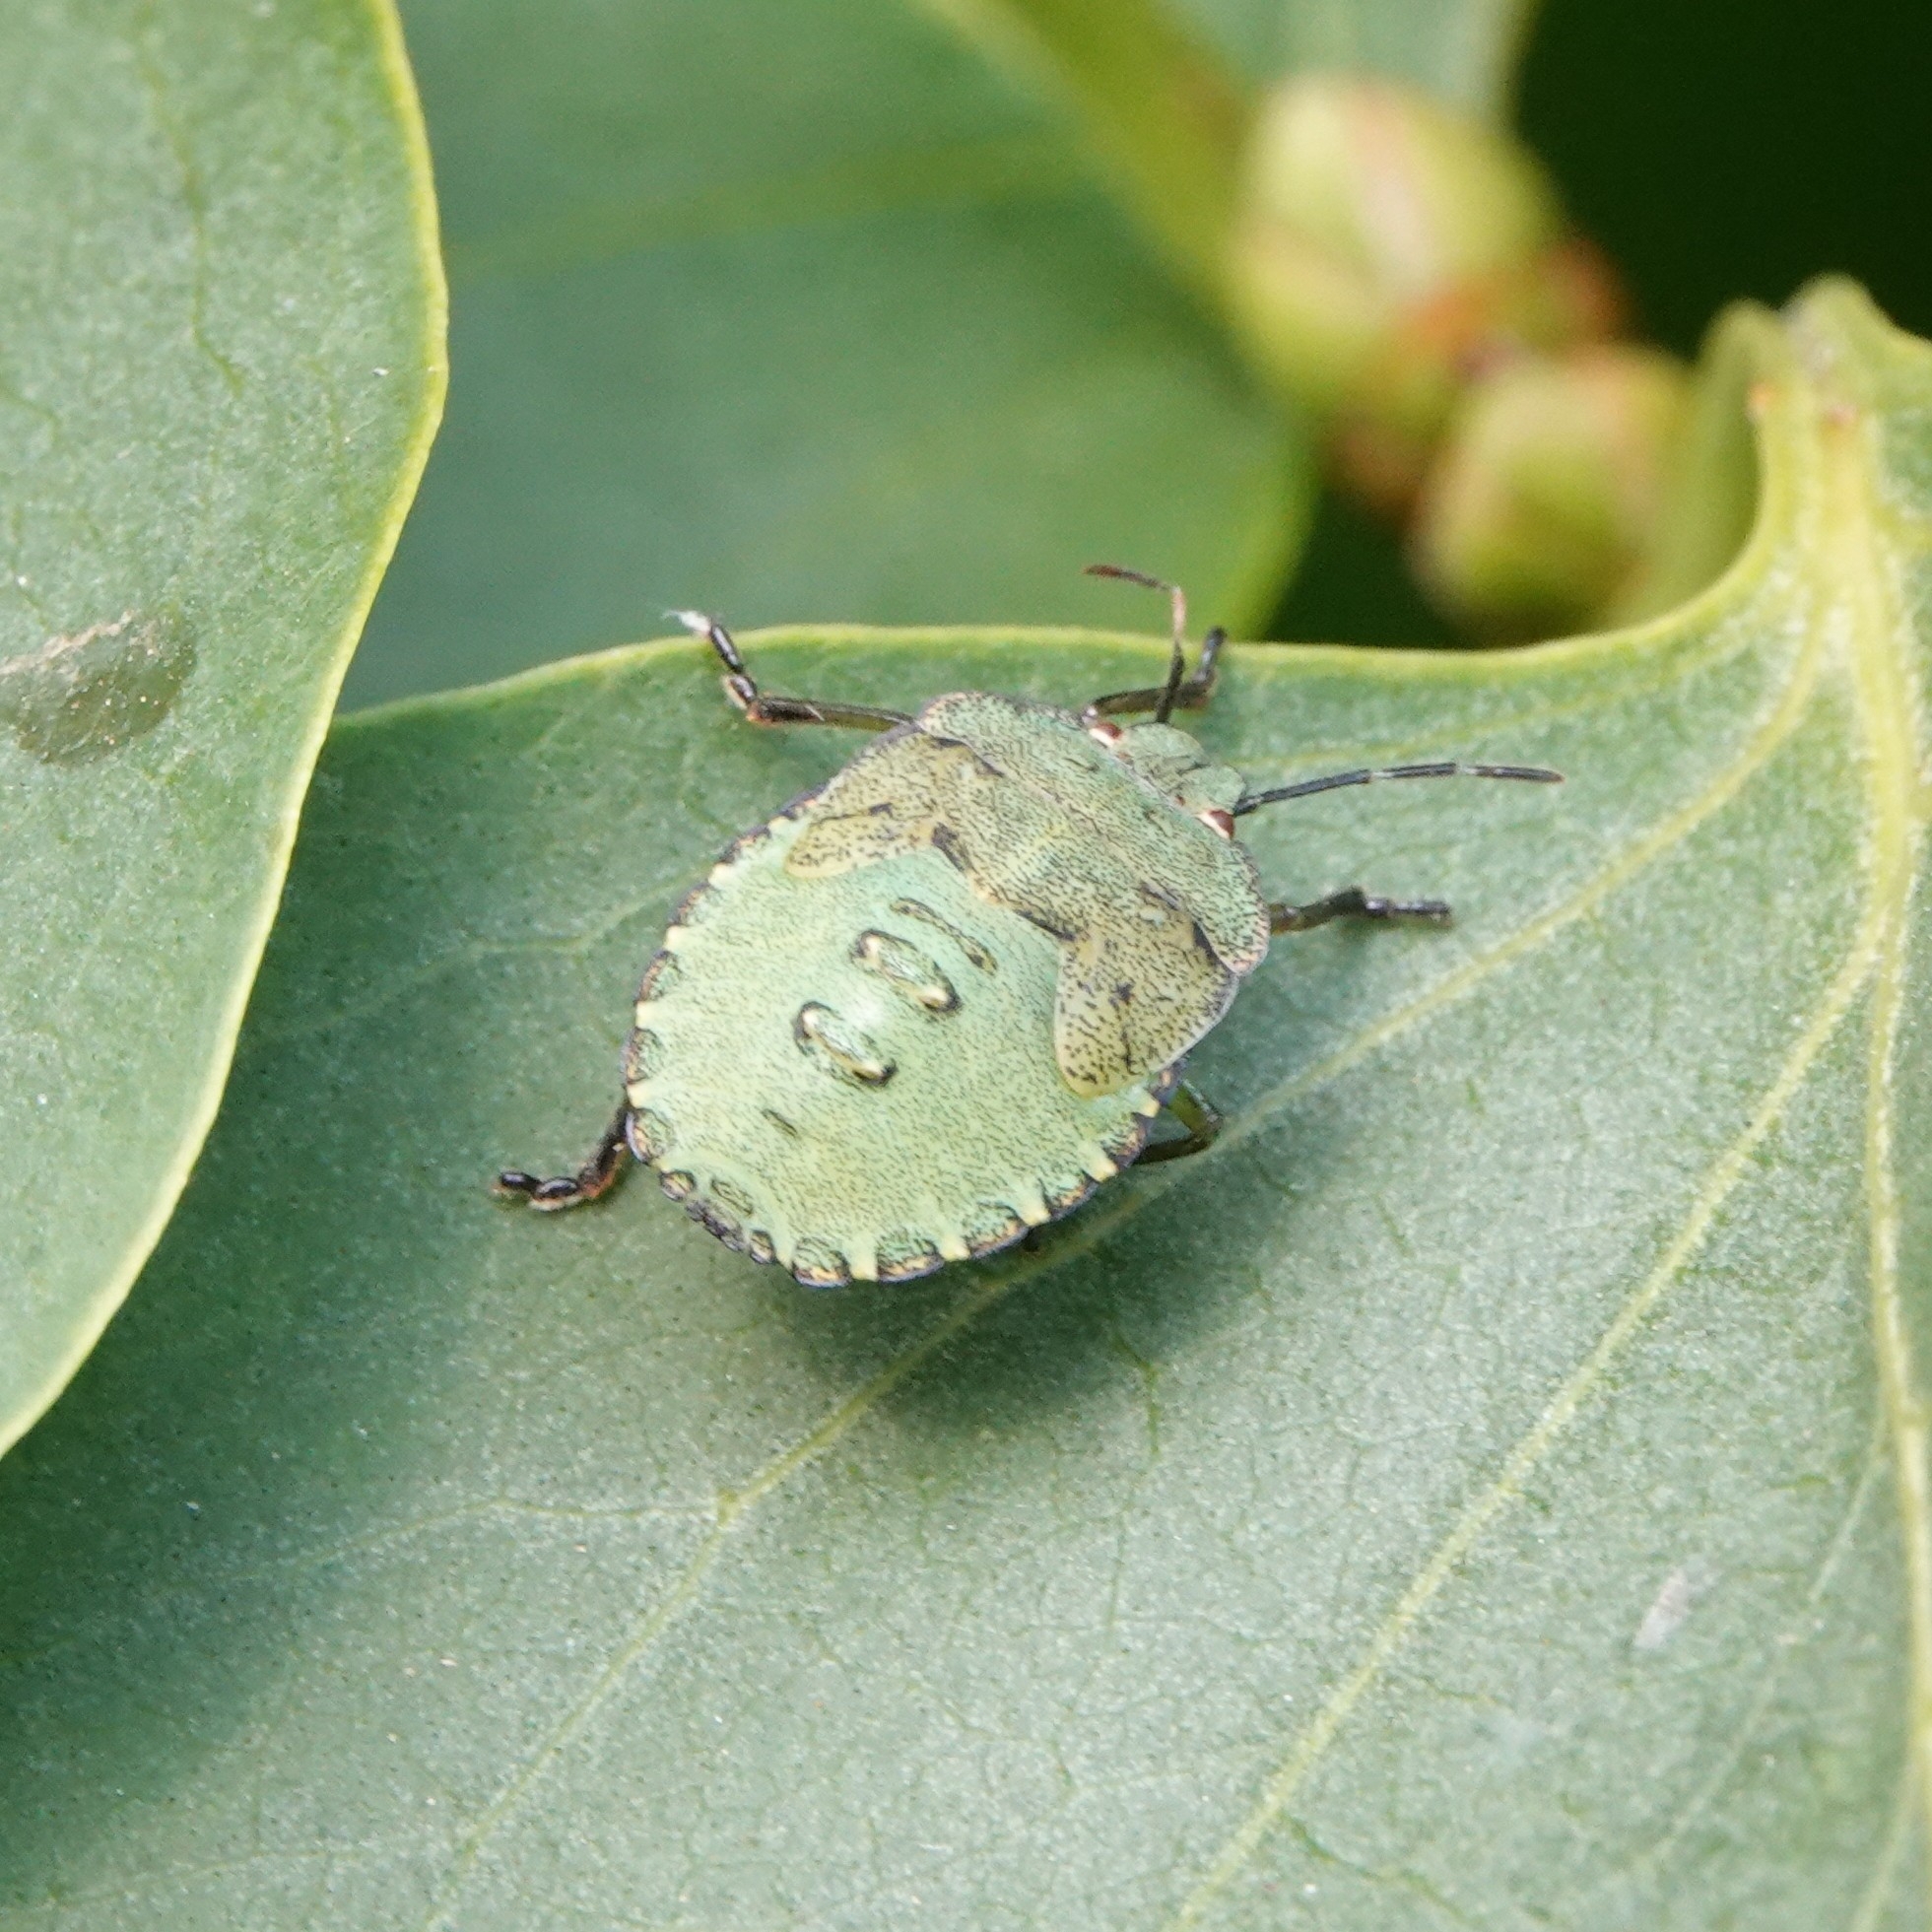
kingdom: Animalia
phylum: Arthropoda
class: Insecta
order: Hemiptera
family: Pentatomidae
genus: Palomena
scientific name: Palomena prasina
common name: Green shieldbug
